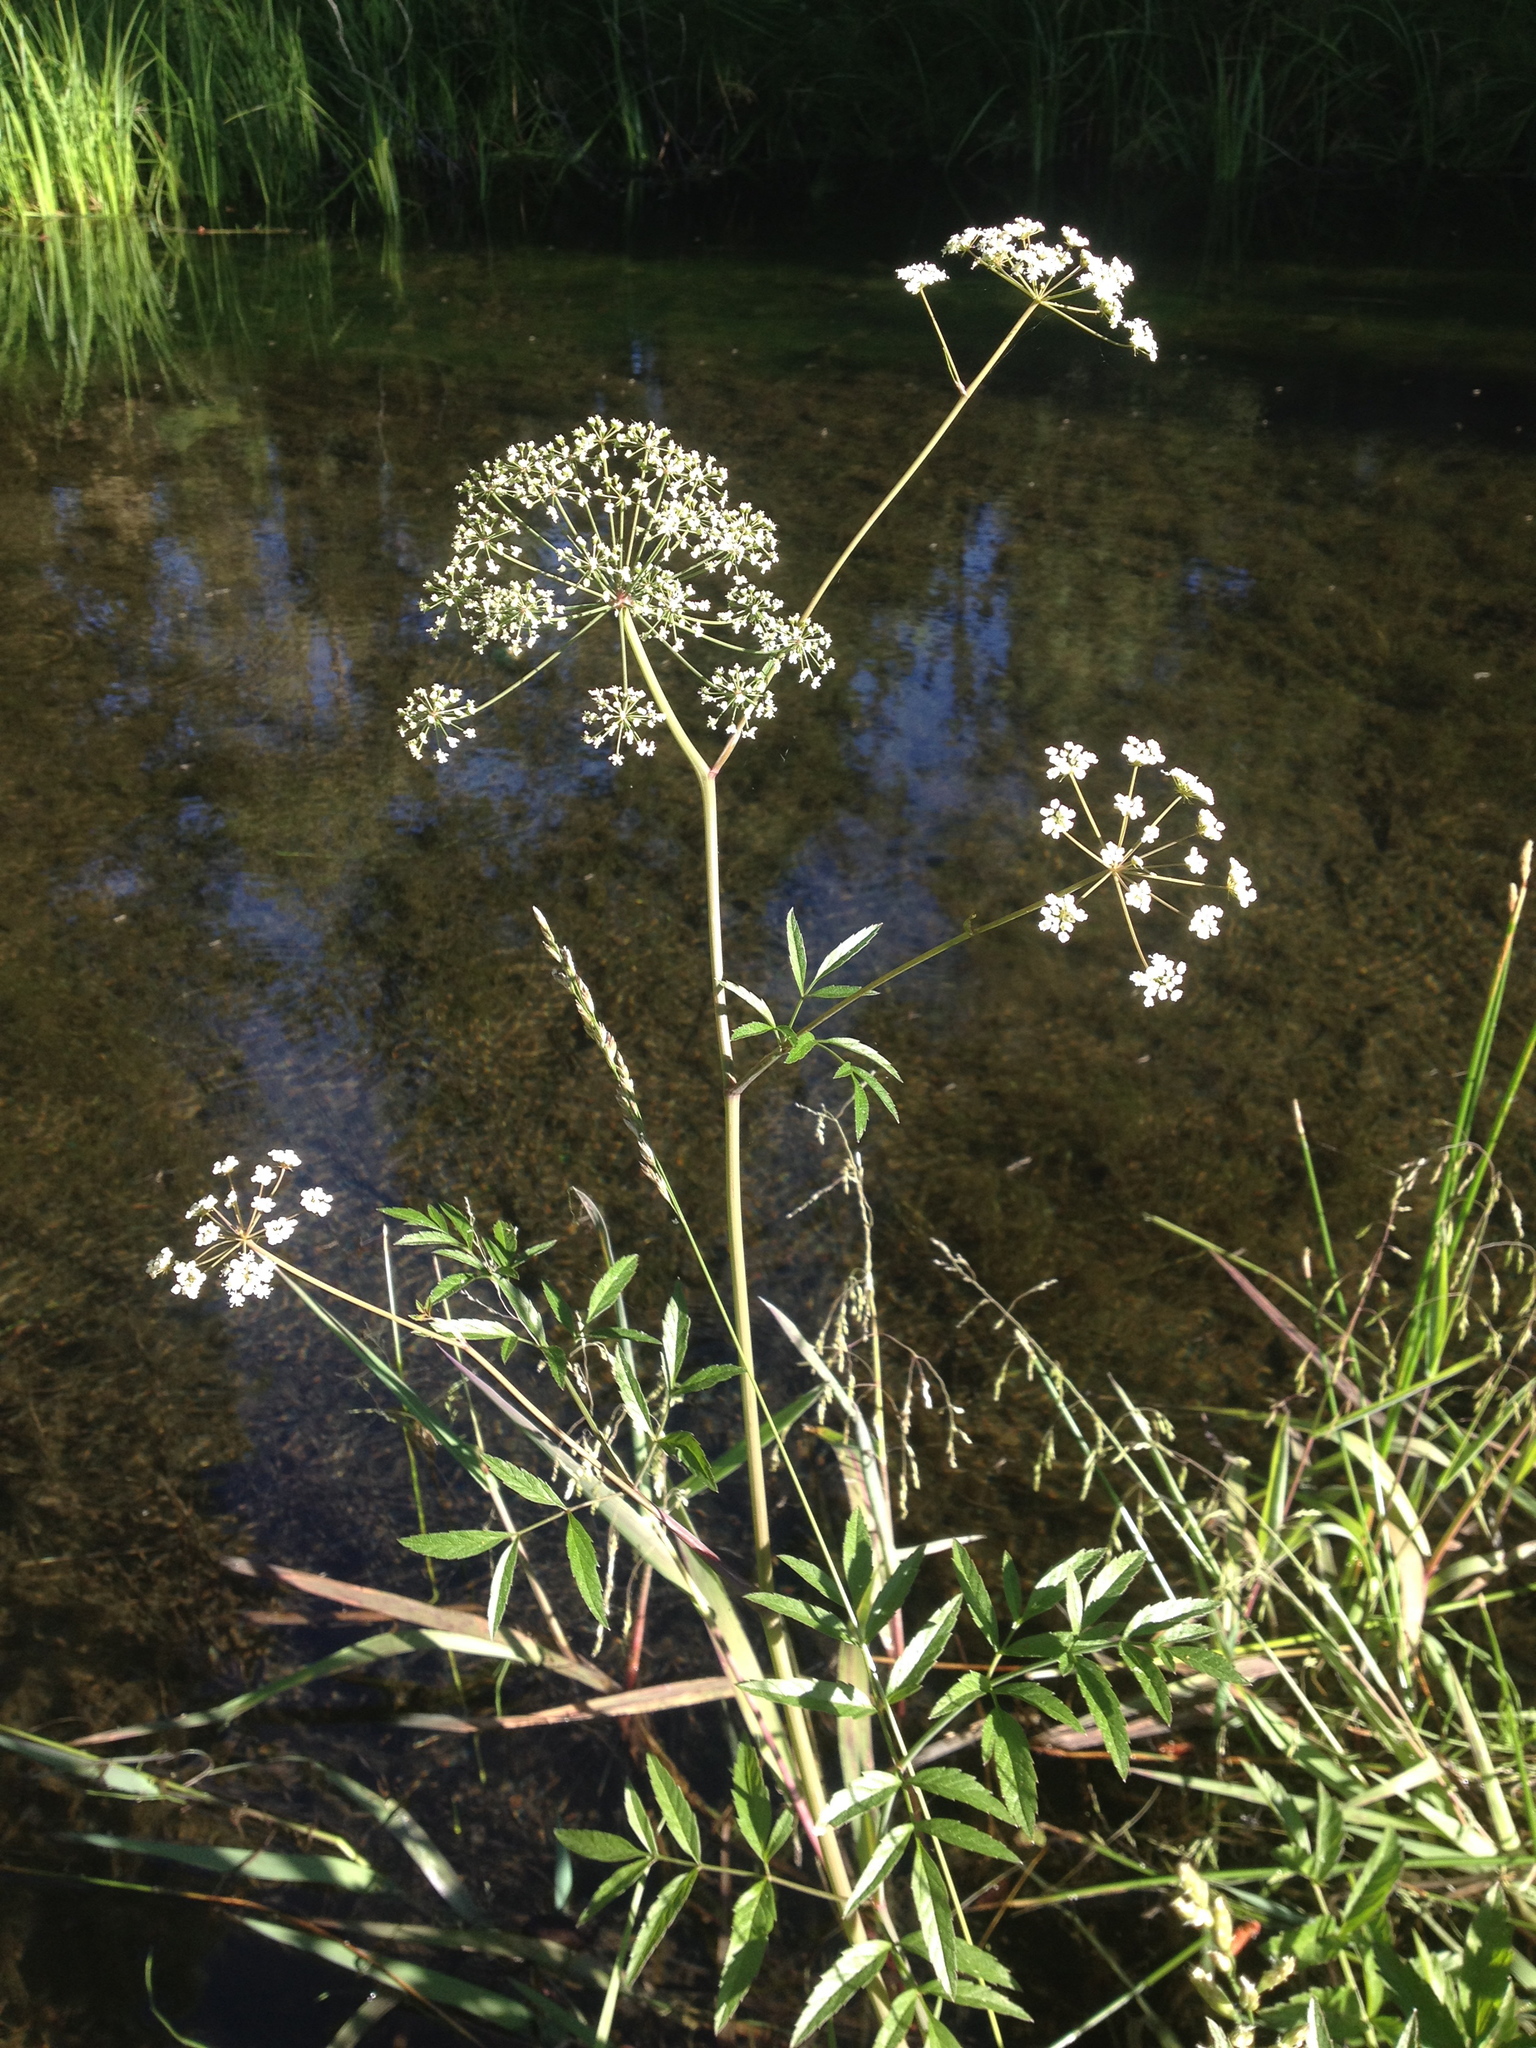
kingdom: Plantae
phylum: Tracheophyta
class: Magnoliopsida
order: Apiales
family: Apiaceae
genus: Cicuta
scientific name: Cicuta douglasii
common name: Western water-hemlock
